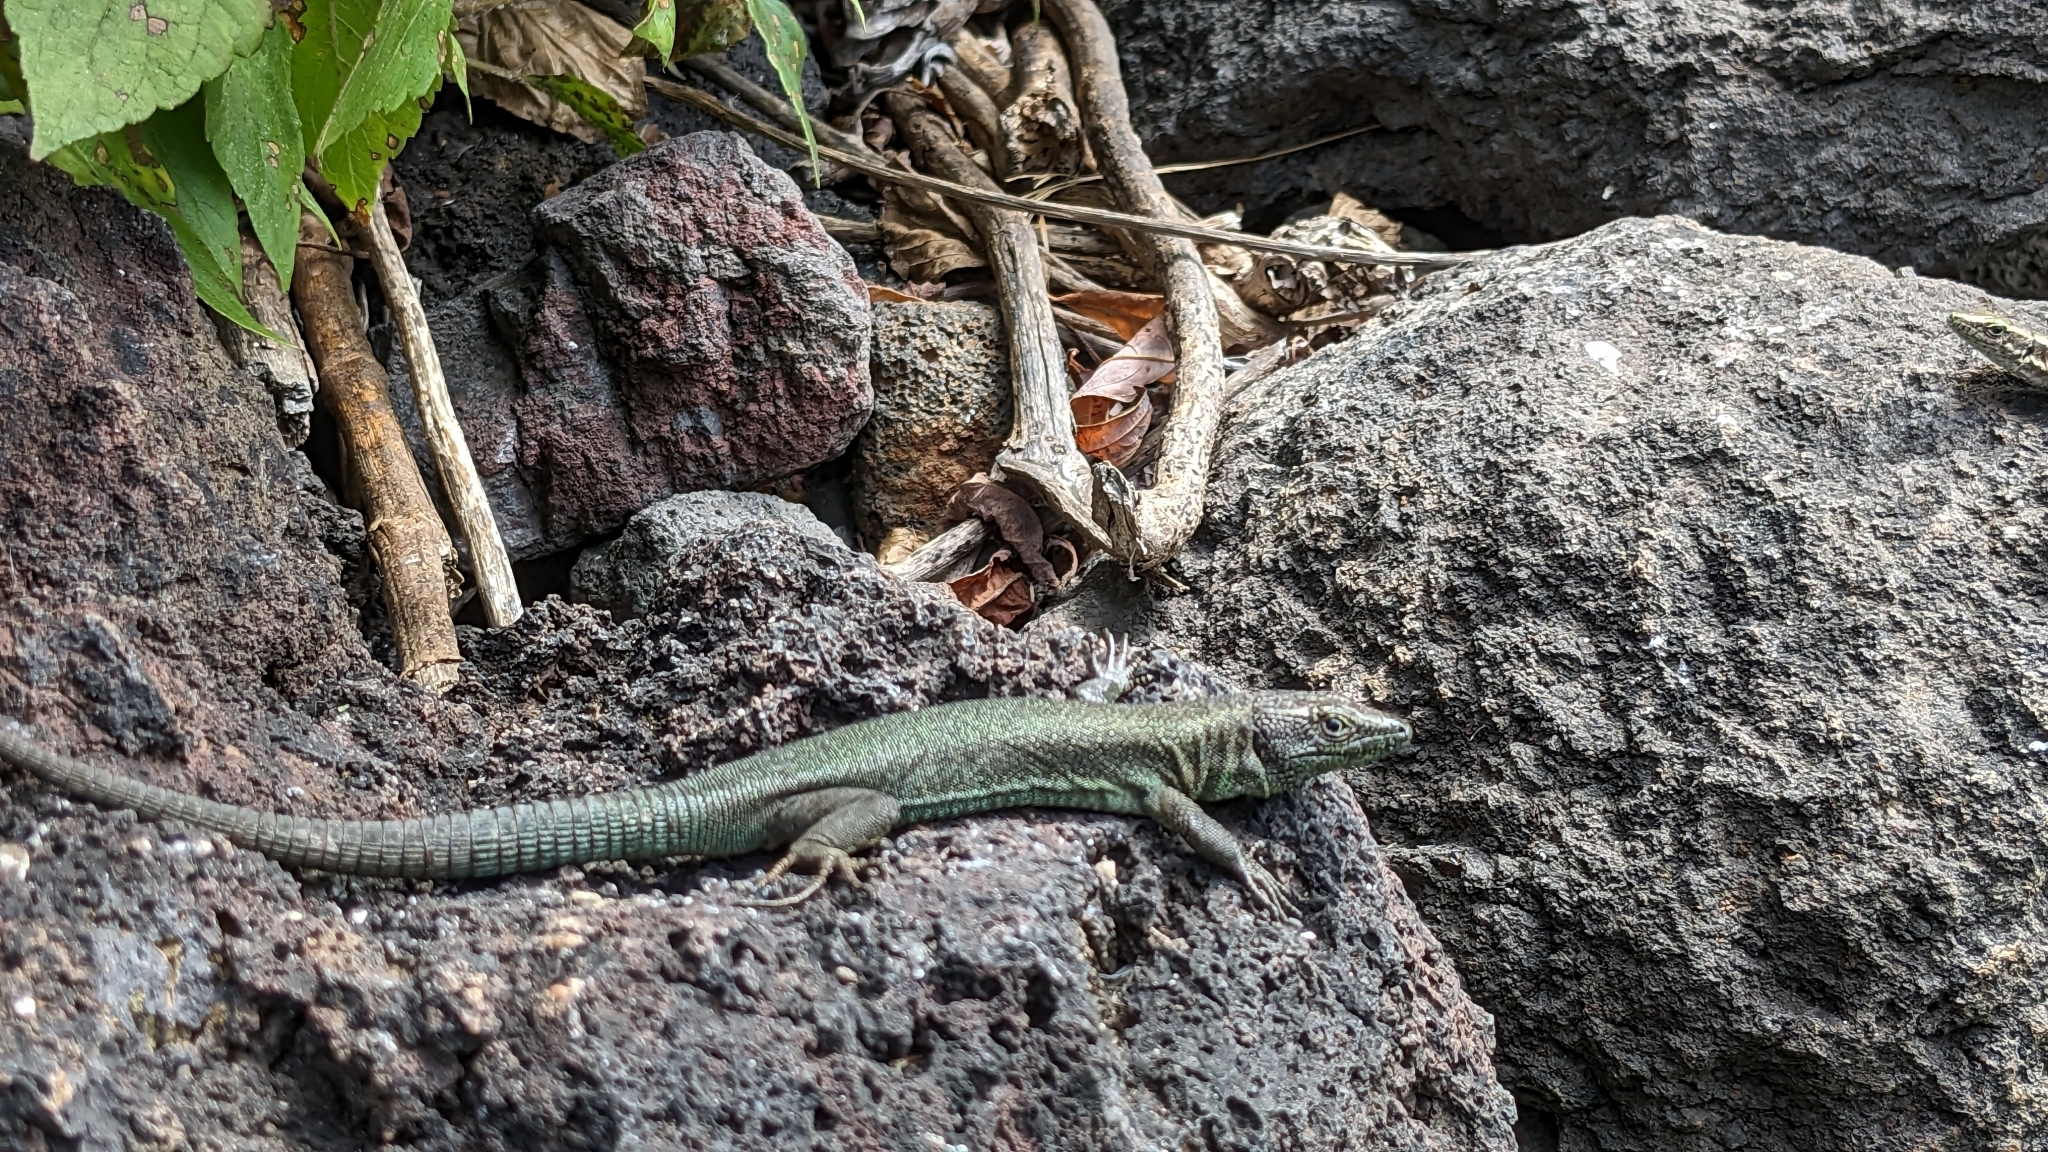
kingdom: Animalia
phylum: Chordata
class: Squamata
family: Lacertidae
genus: Teira
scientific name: Teira dugesii
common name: Madeira lizard
